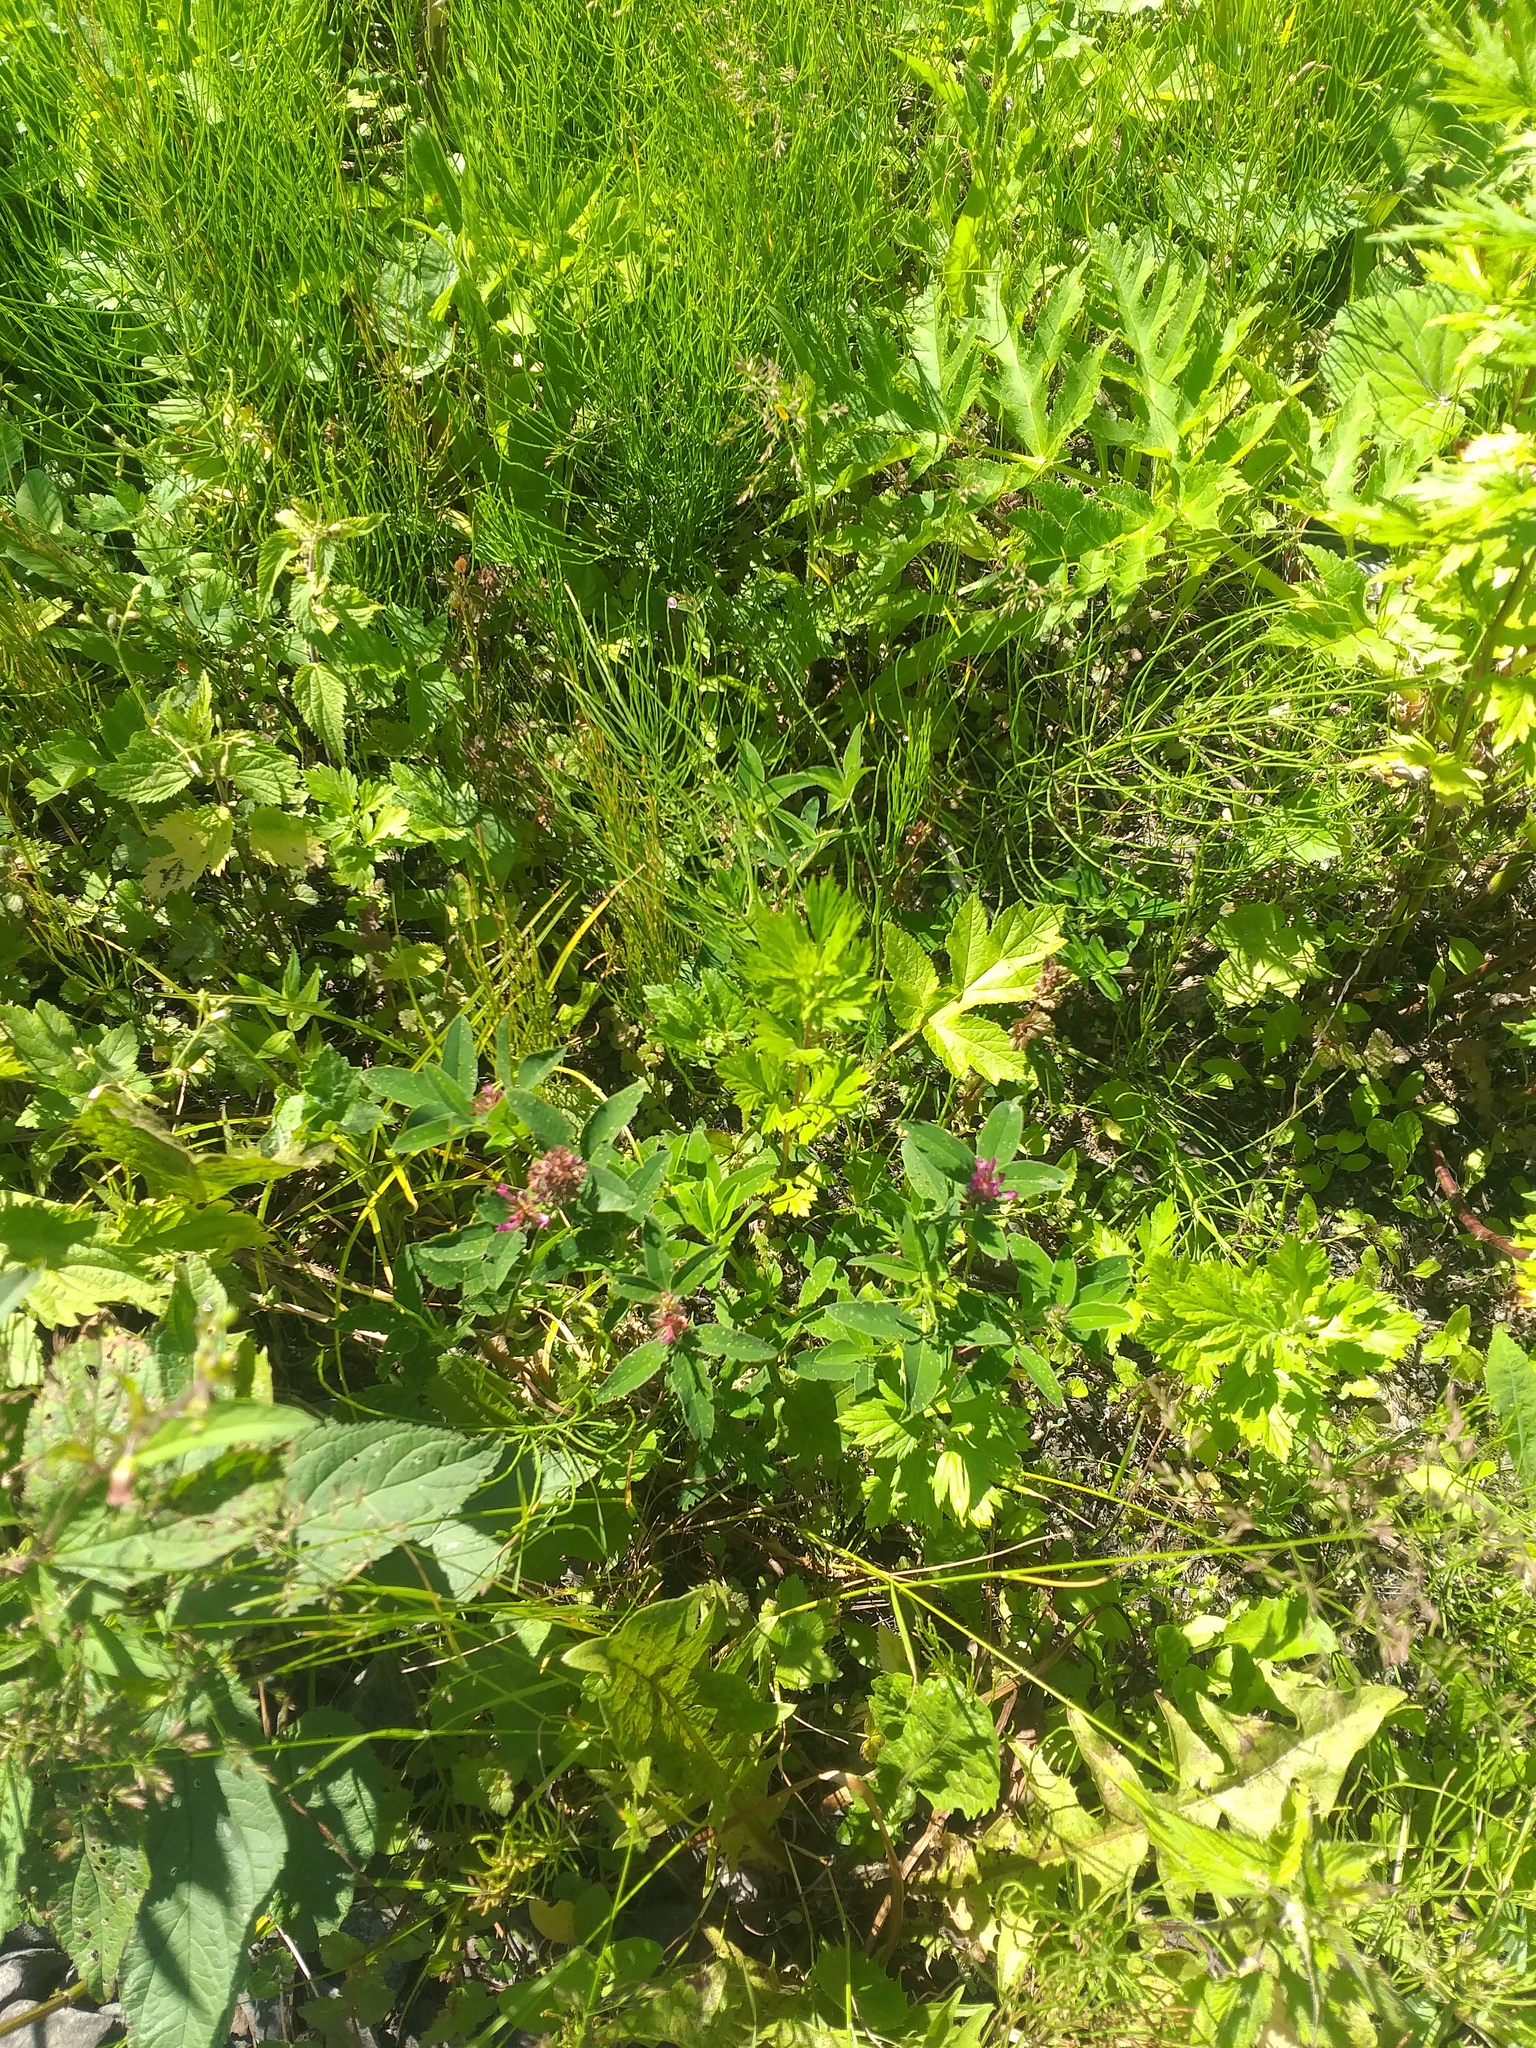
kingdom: Plantae
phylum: Tracheophyta
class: Magnoliopsida
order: Fabales
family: Fabaceae
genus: Trifolium
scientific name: Trifolium medium
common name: Zigzag clover
